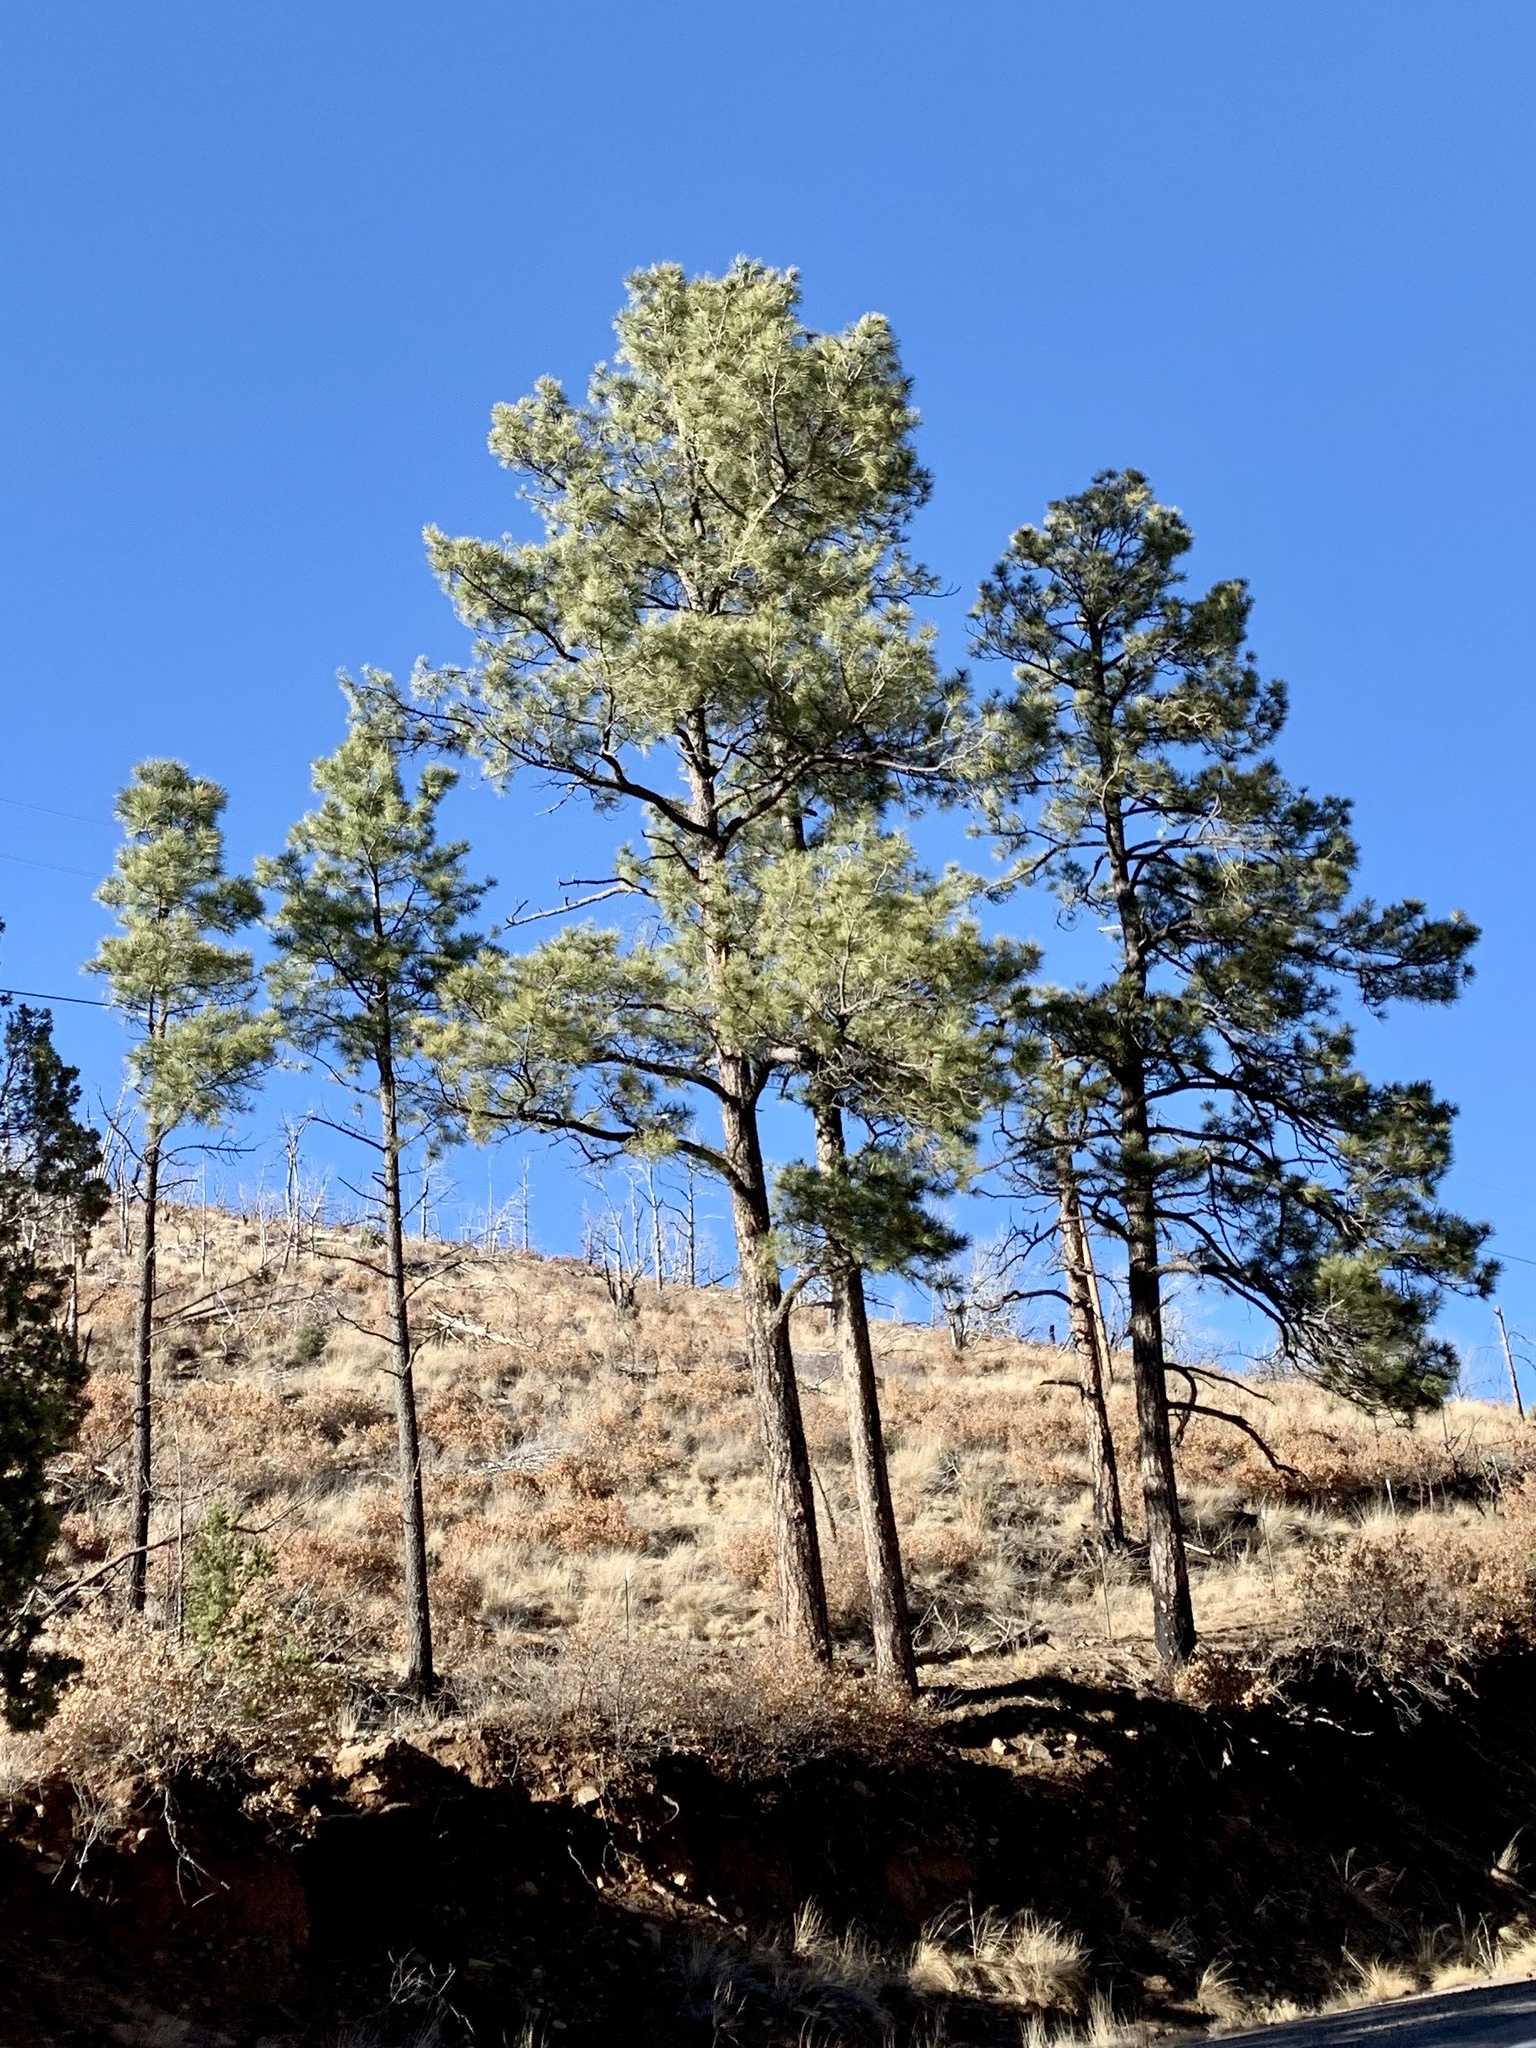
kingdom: Plantae
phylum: Tracheophyta
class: Pinopsida
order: Pinales
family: Pinaceae
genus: Pinus
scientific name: Pinus ponderosa
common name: Western yellow-pine
